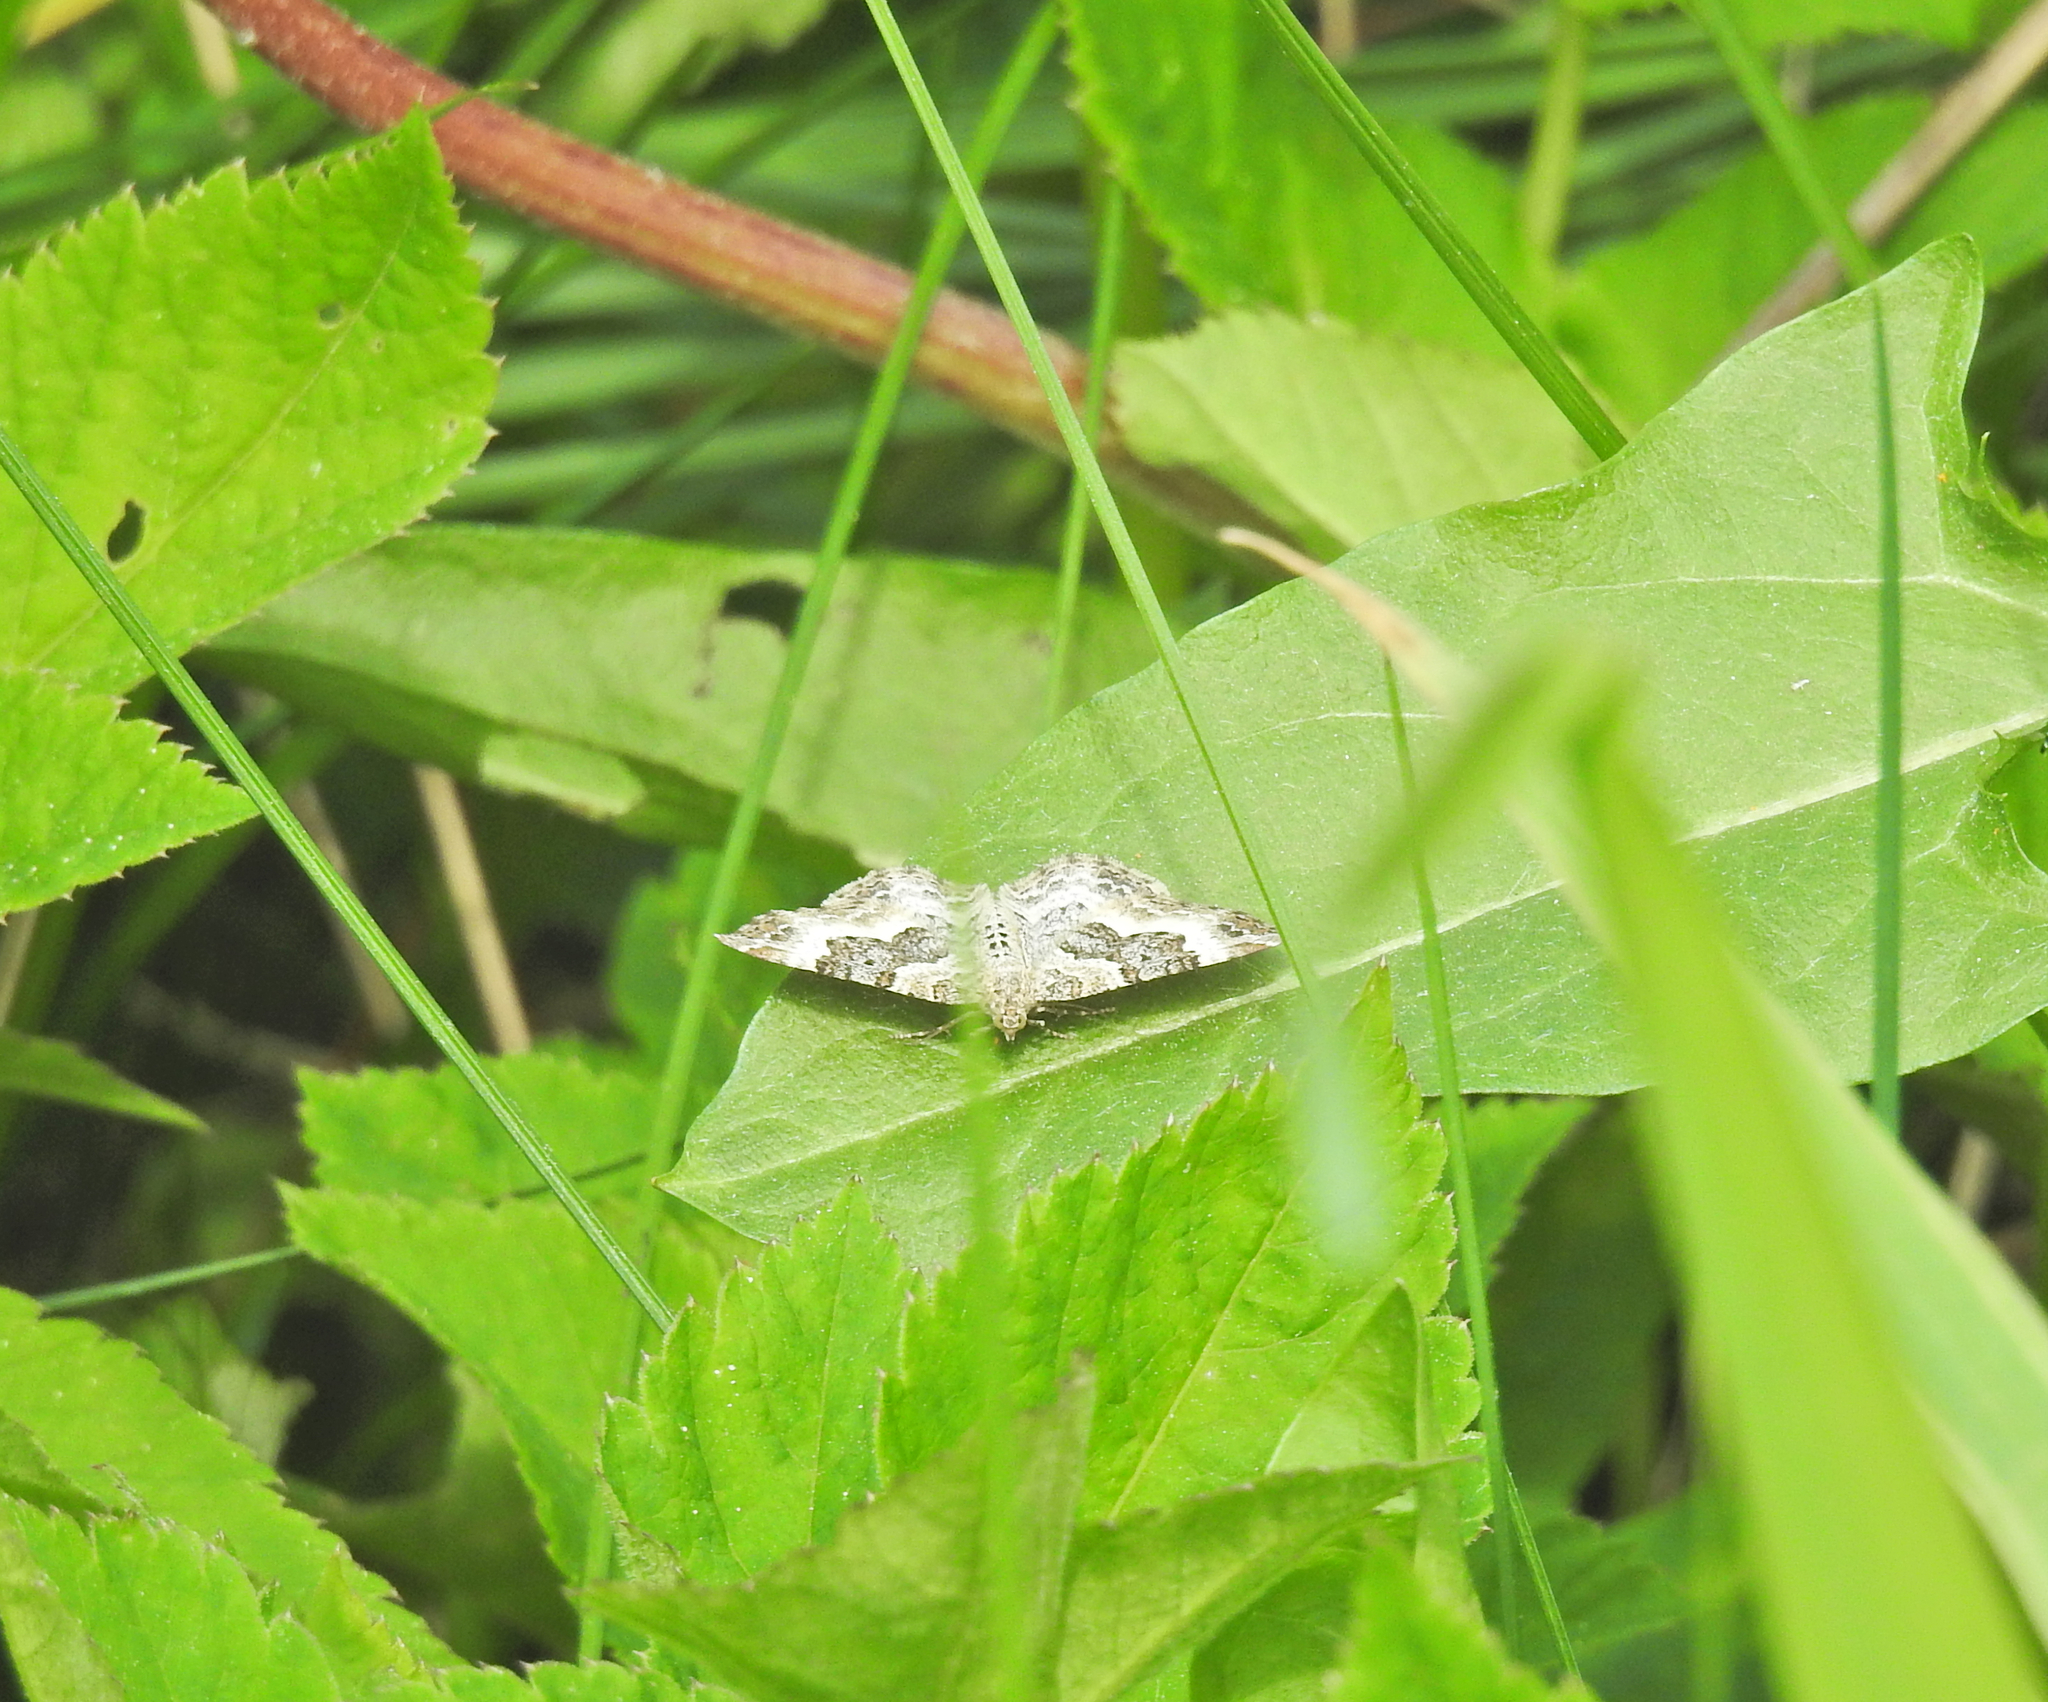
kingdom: Animalia
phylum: Arthropoda
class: Insecta
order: Lepidoptera
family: Geometridae
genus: Epirrhoe
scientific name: Epirrhoe alternata
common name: Common carpet
